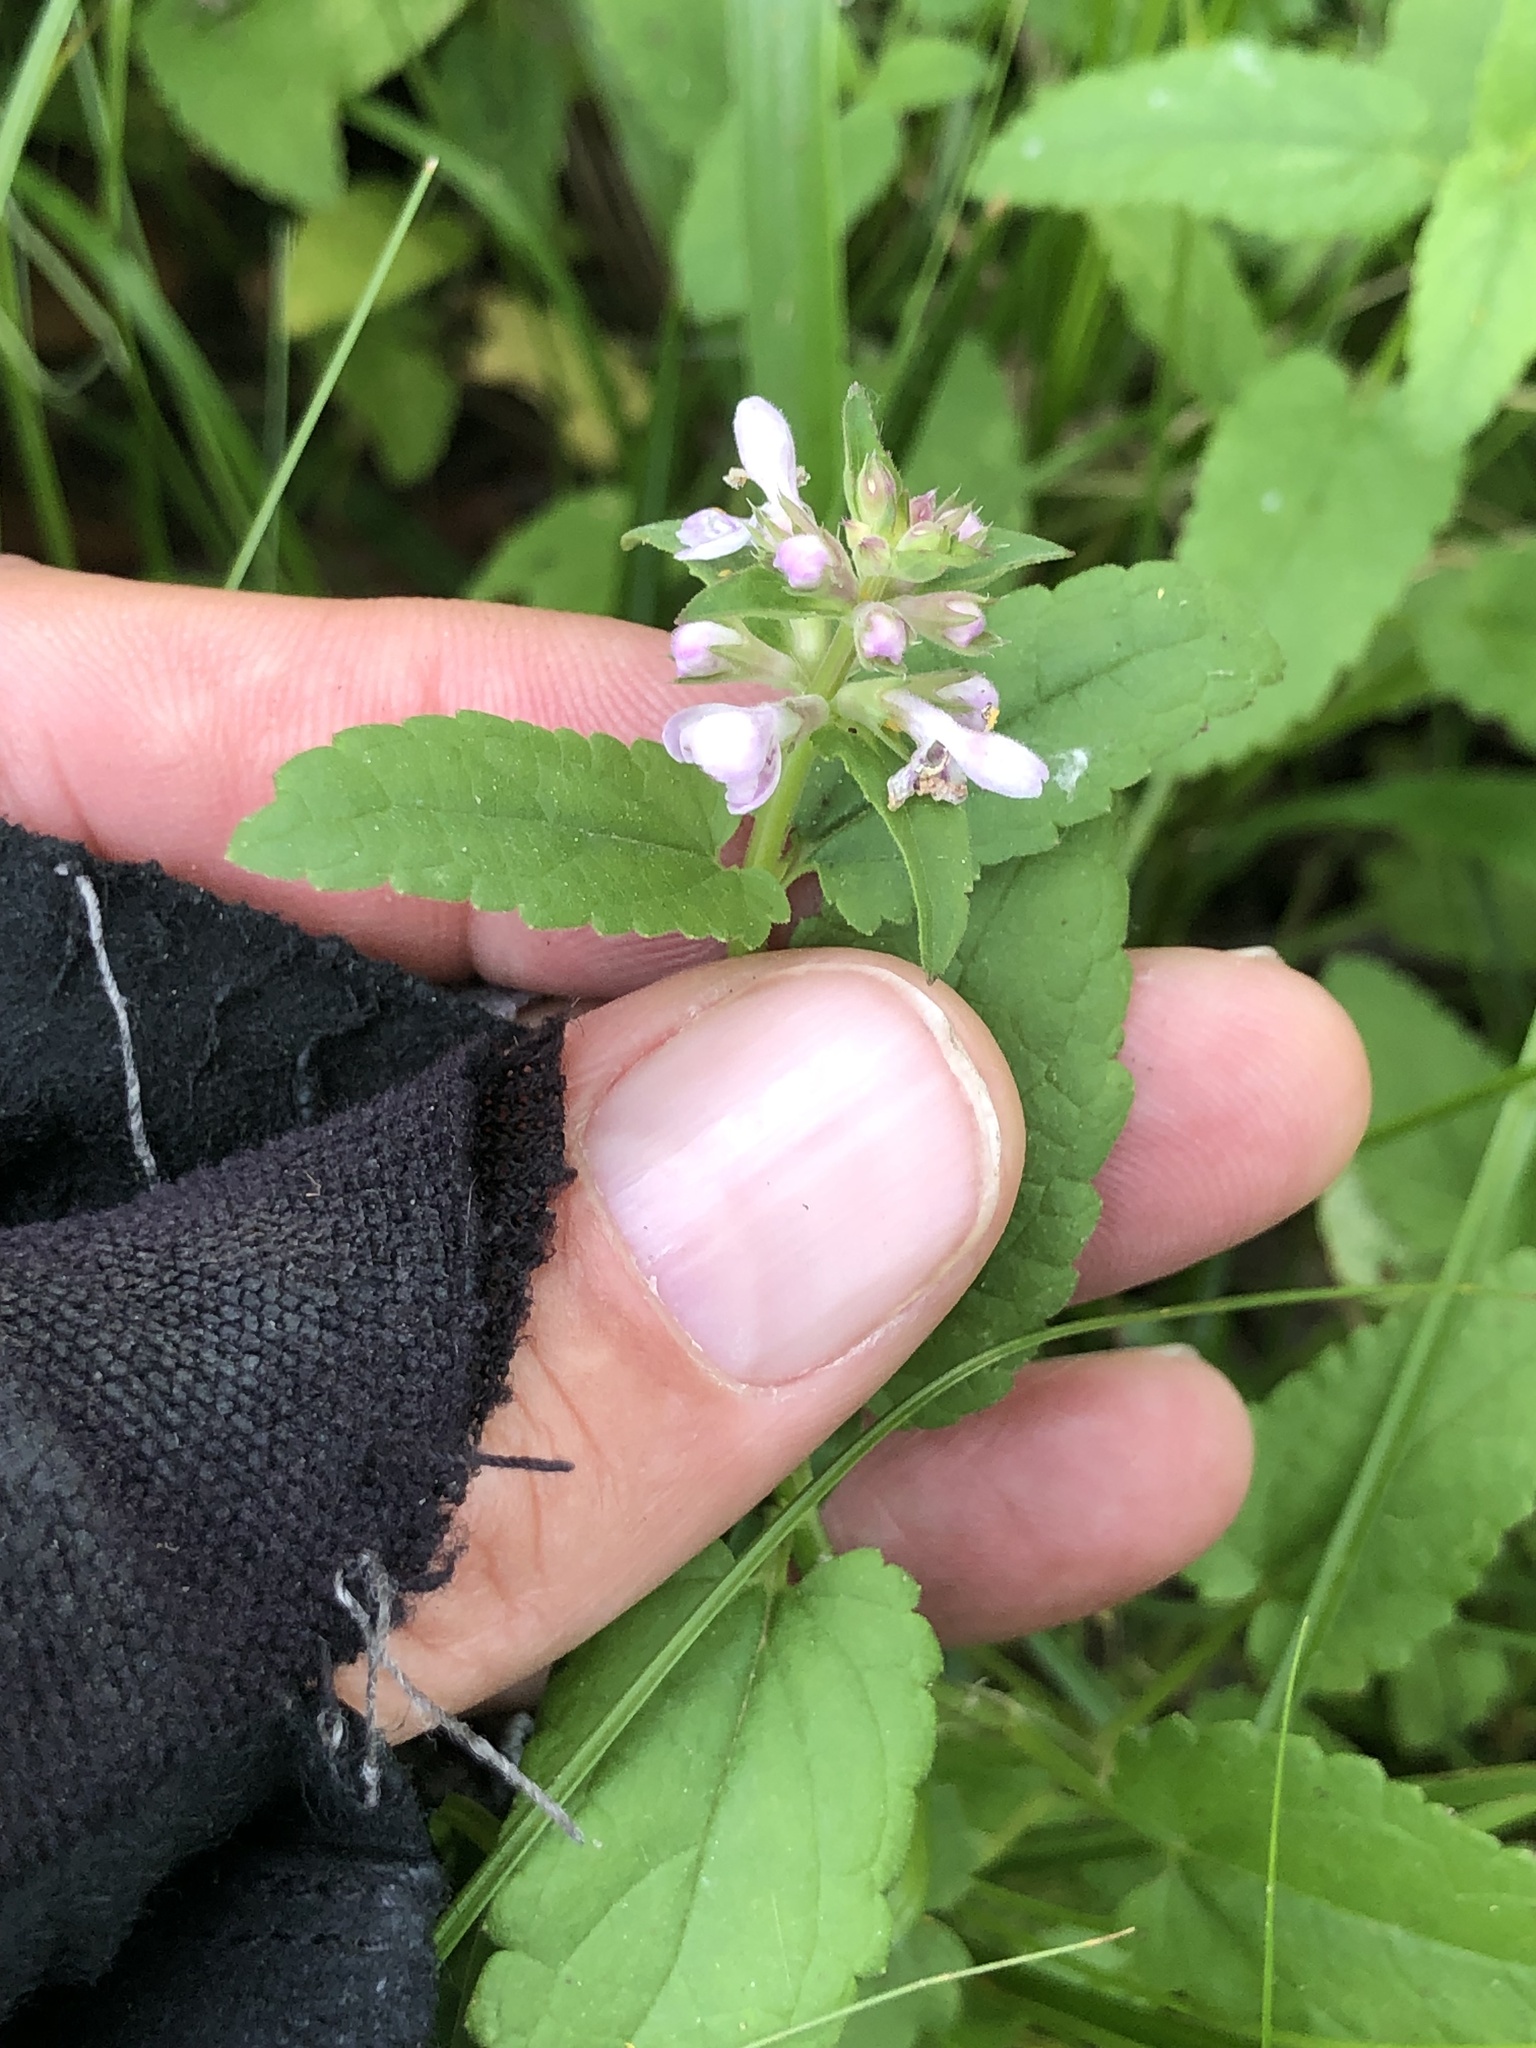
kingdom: Plantae
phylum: Tracheophyta
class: Magnoliopsida
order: Lamiales
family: Lamiaceae
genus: Stachys
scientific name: Stachys floridana
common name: Florida betony
